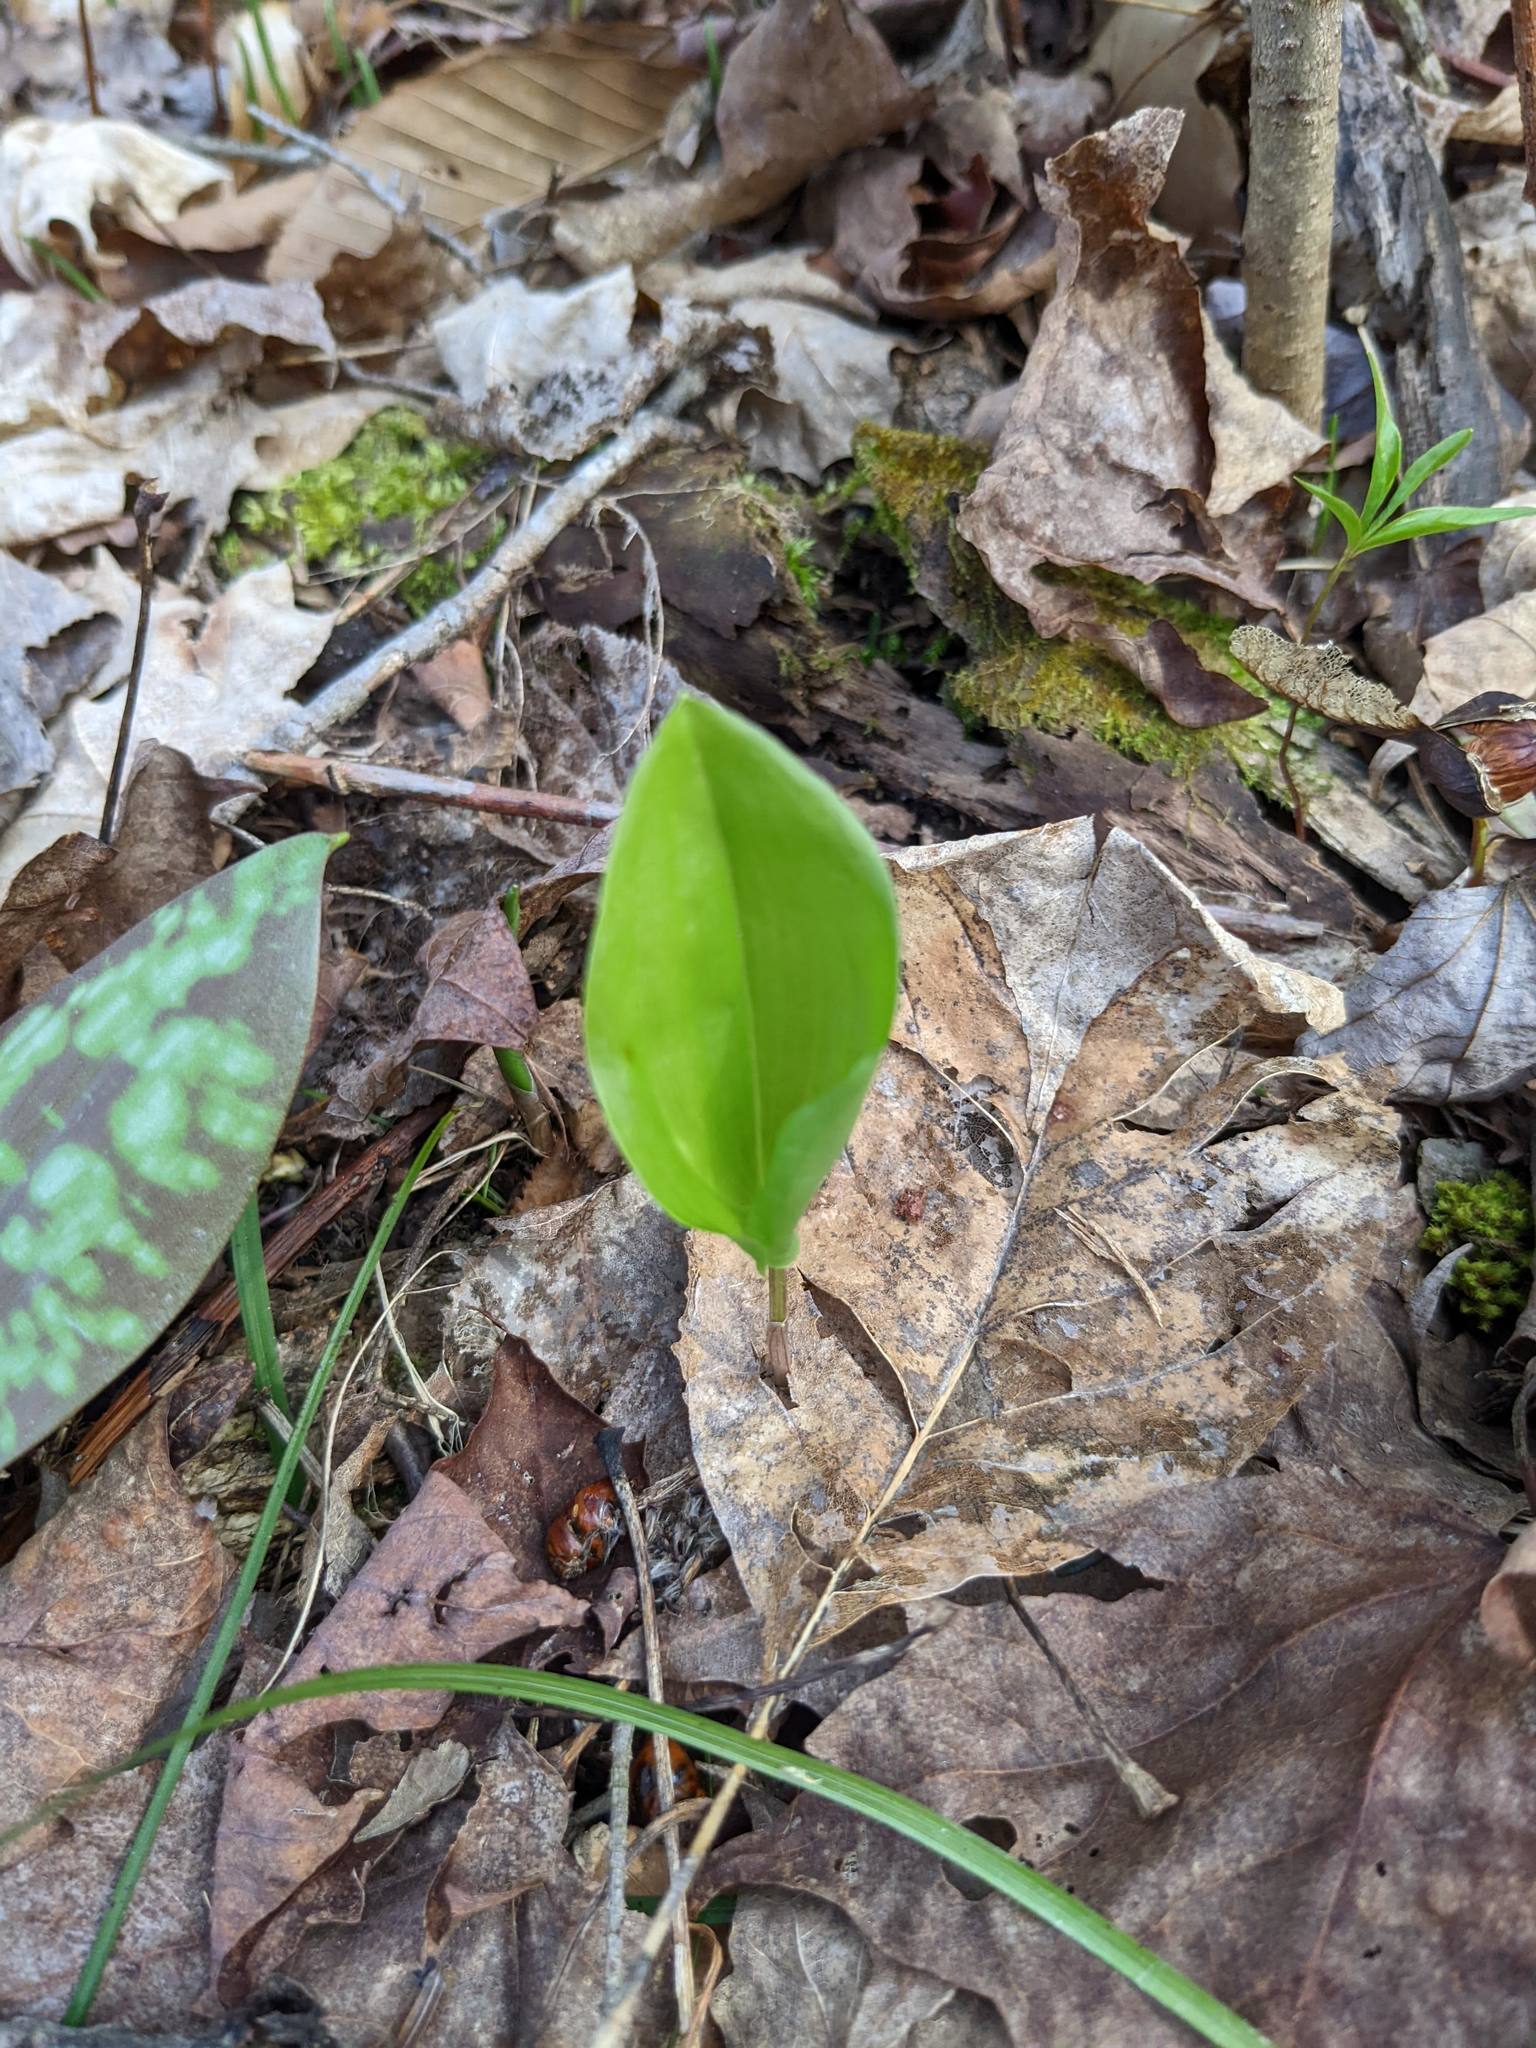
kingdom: Plantae
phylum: Tracheophyta
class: Liliopsida
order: Asparagales
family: Asparagaceae
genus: Maianthemum
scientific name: Maianthemum canadense
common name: False lily-of-the-valley
